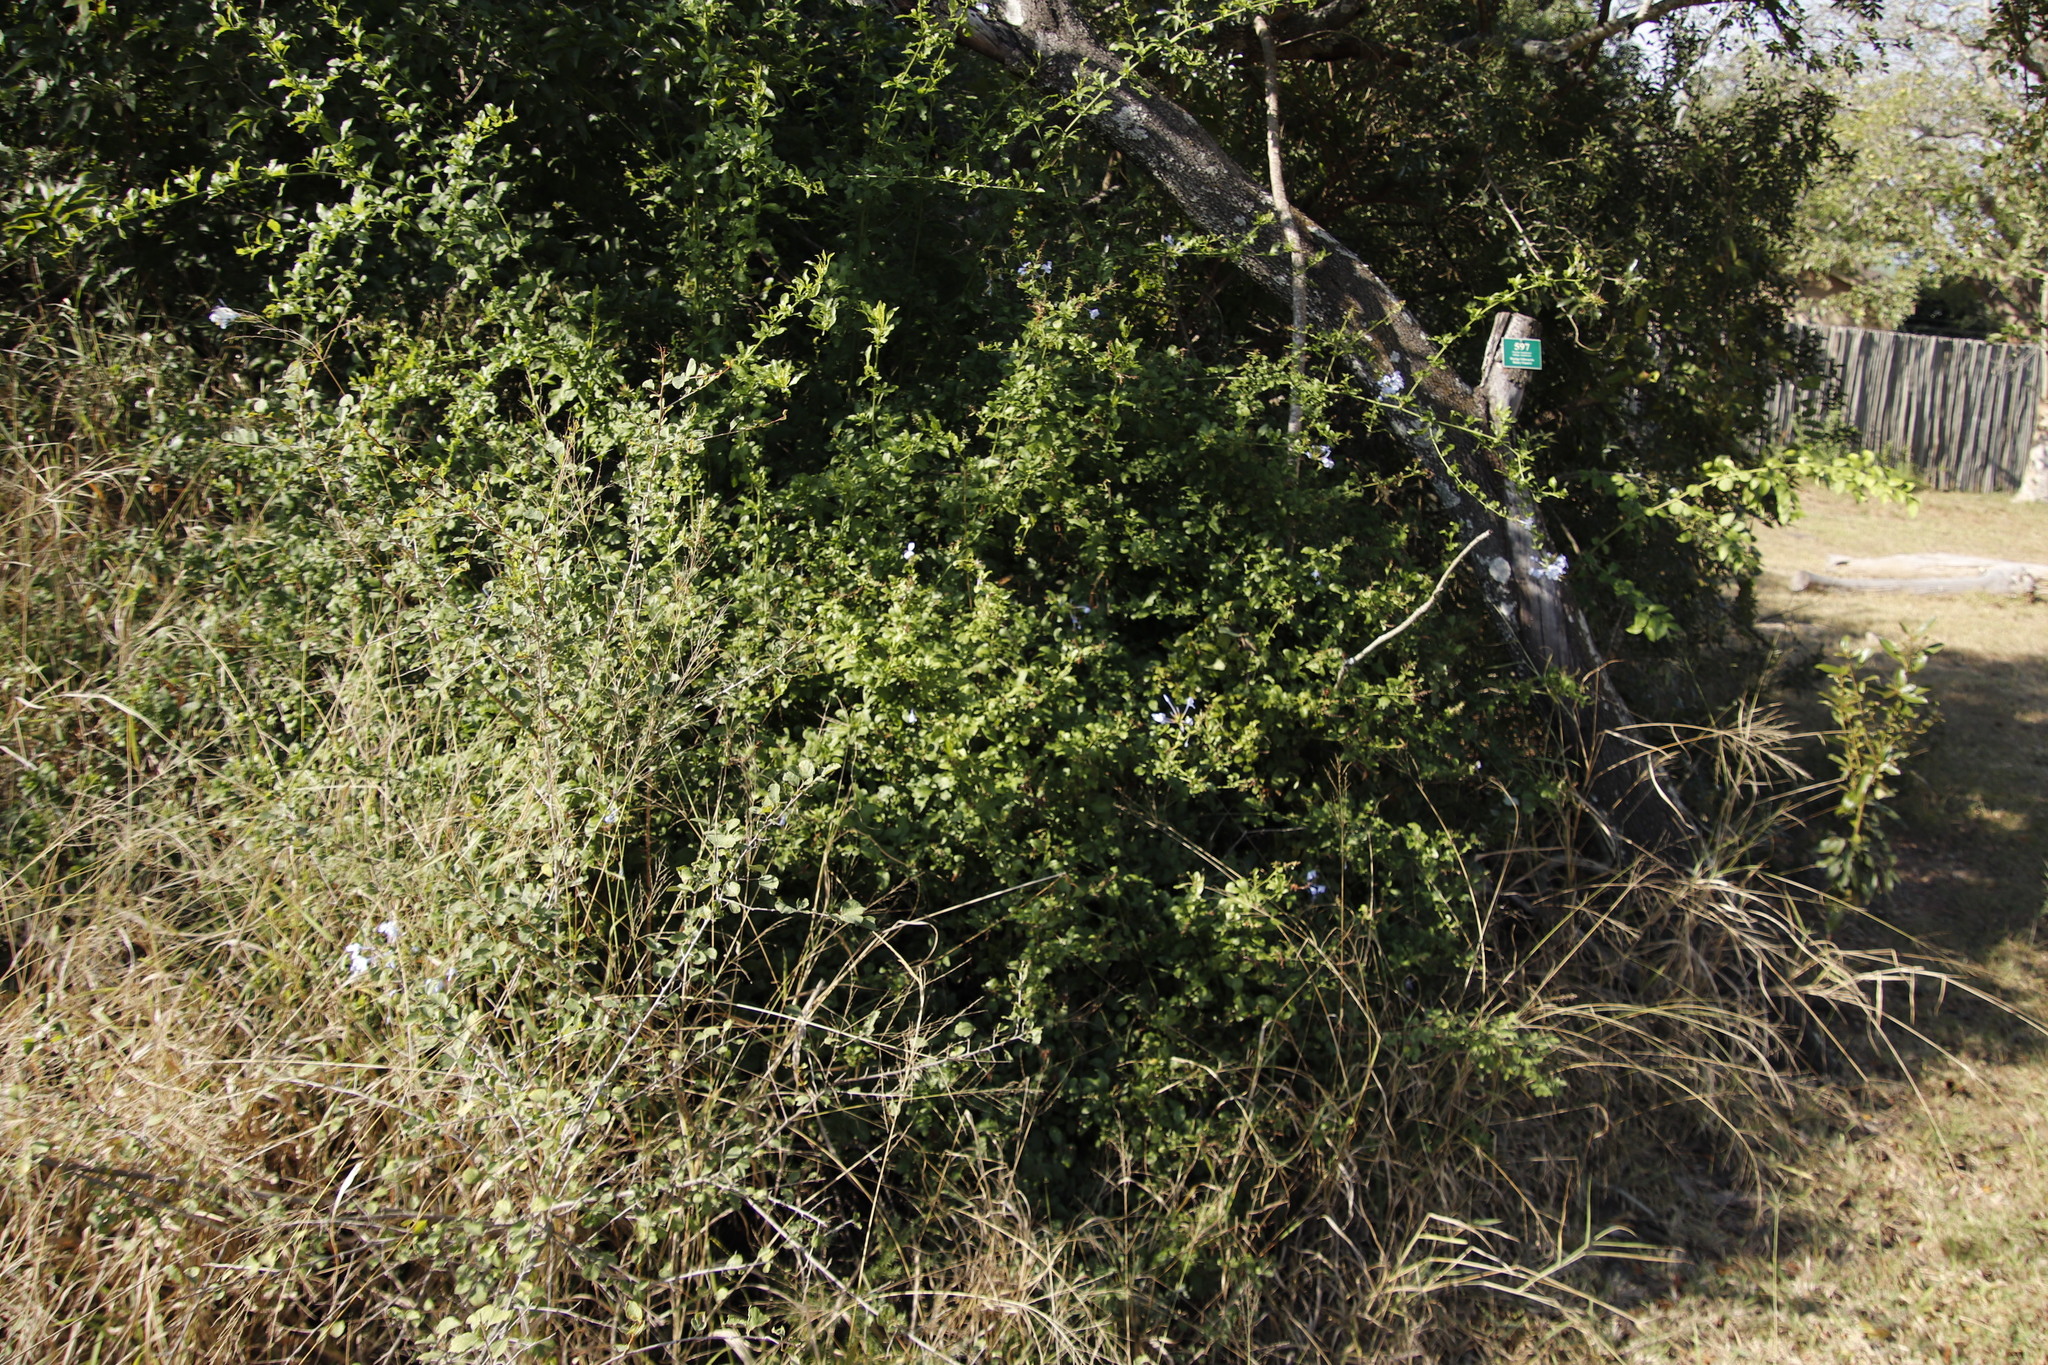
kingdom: Plantae
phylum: Tracheophyta
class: Magnoliopsida
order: Caryophyllales
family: Plumbaginaceae
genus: Plumbago
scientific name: Plumbago auriculata
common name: Cape leadwort
